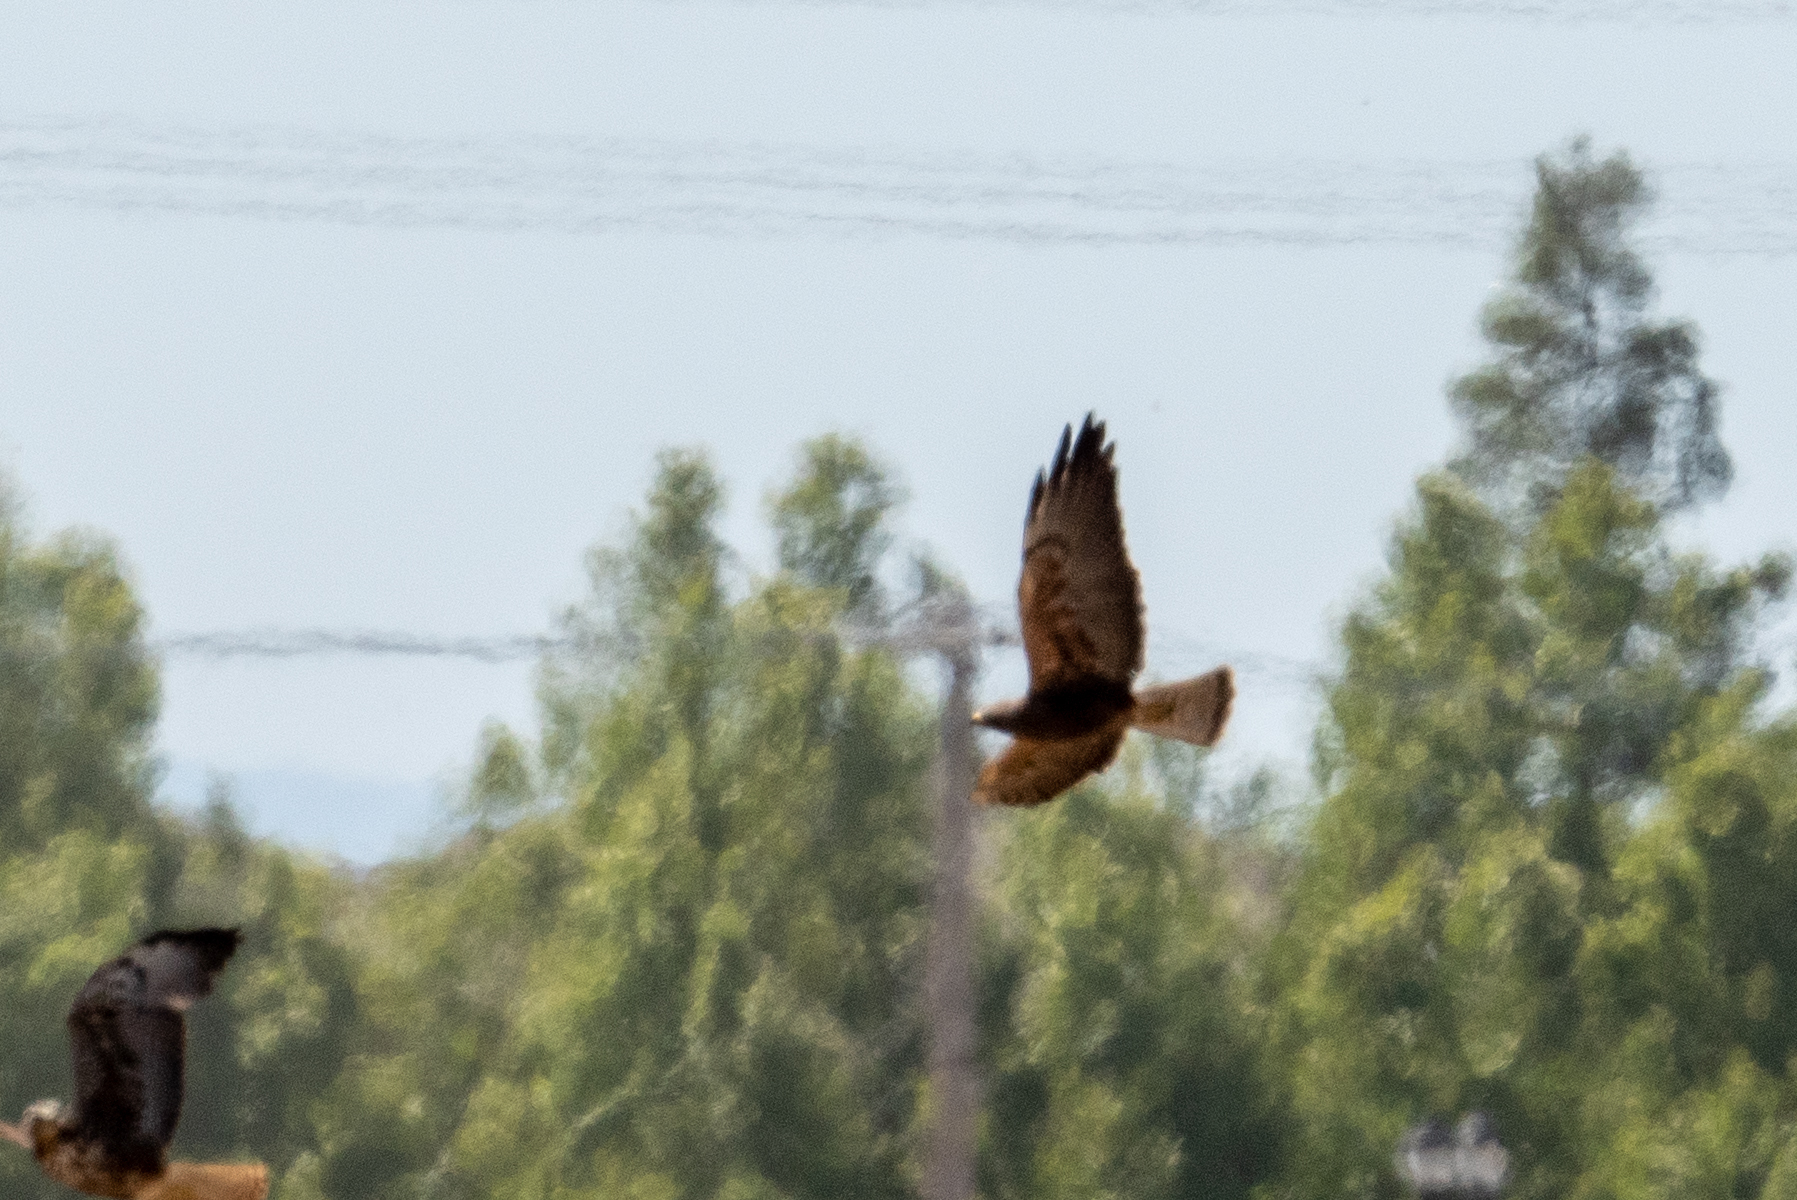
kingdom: Animalia
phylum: Chordata
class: Aves
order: Accipitriformes
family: Accipitridae
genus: Buteo
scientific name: Buteo swainsoni
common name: Swainson's hawk
